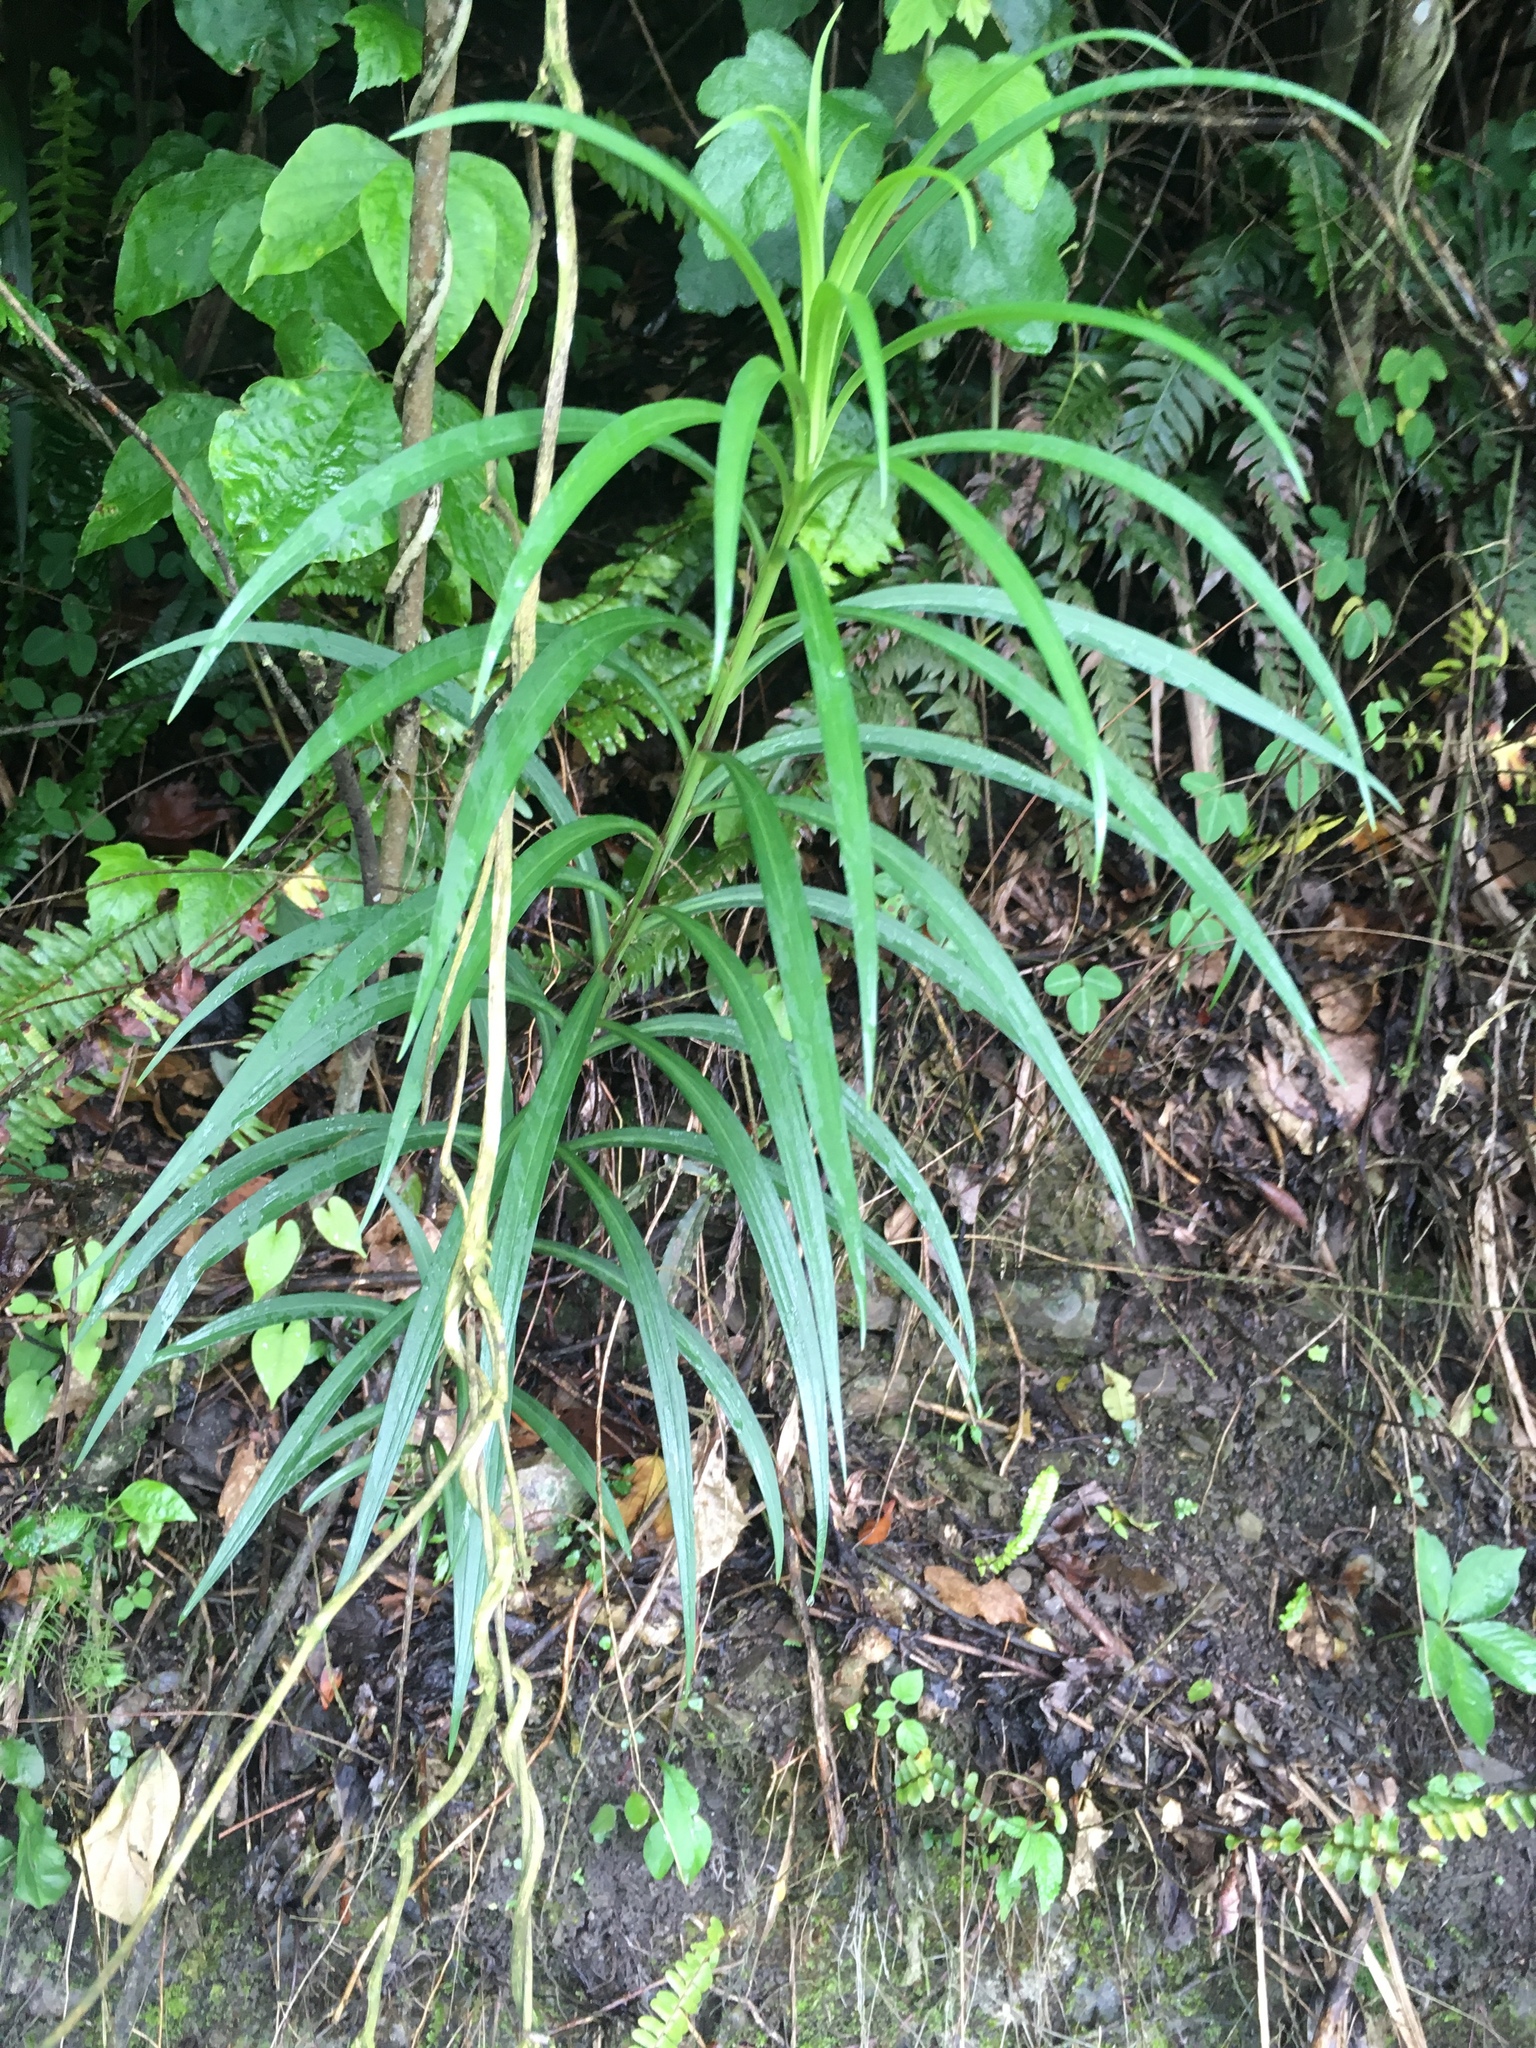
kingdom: Plantae
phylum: Tracheophyta
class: Liliopsida
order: Liliales
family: Liliaceae
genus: Lilium
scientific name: Lilium formosanum
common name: Formosa lily
